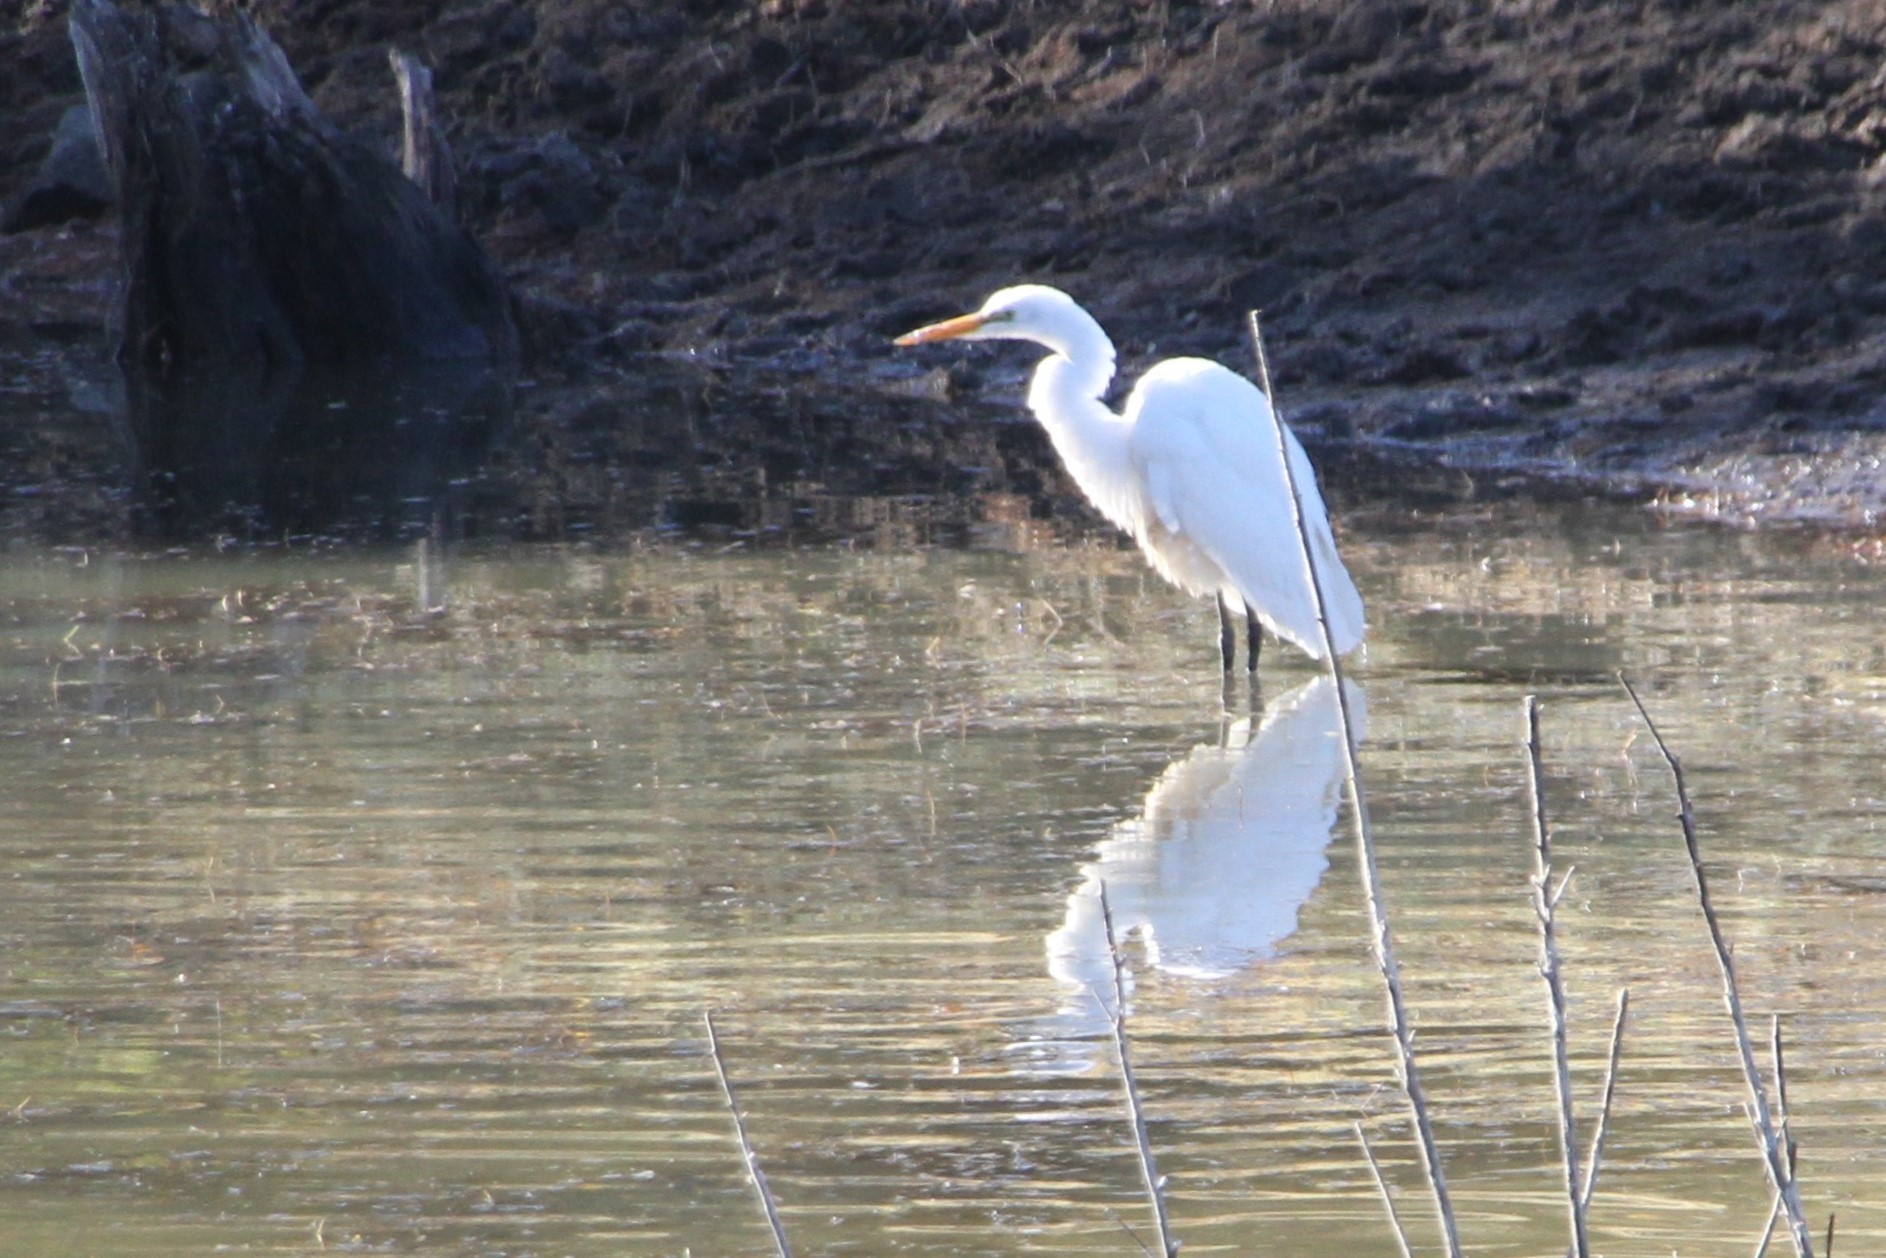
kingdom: Animalia
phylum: Chordata
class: Aves
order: Pelecaniformes
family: Ardeidae
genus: Ardea
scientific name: Ardea alba
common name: Great egret
